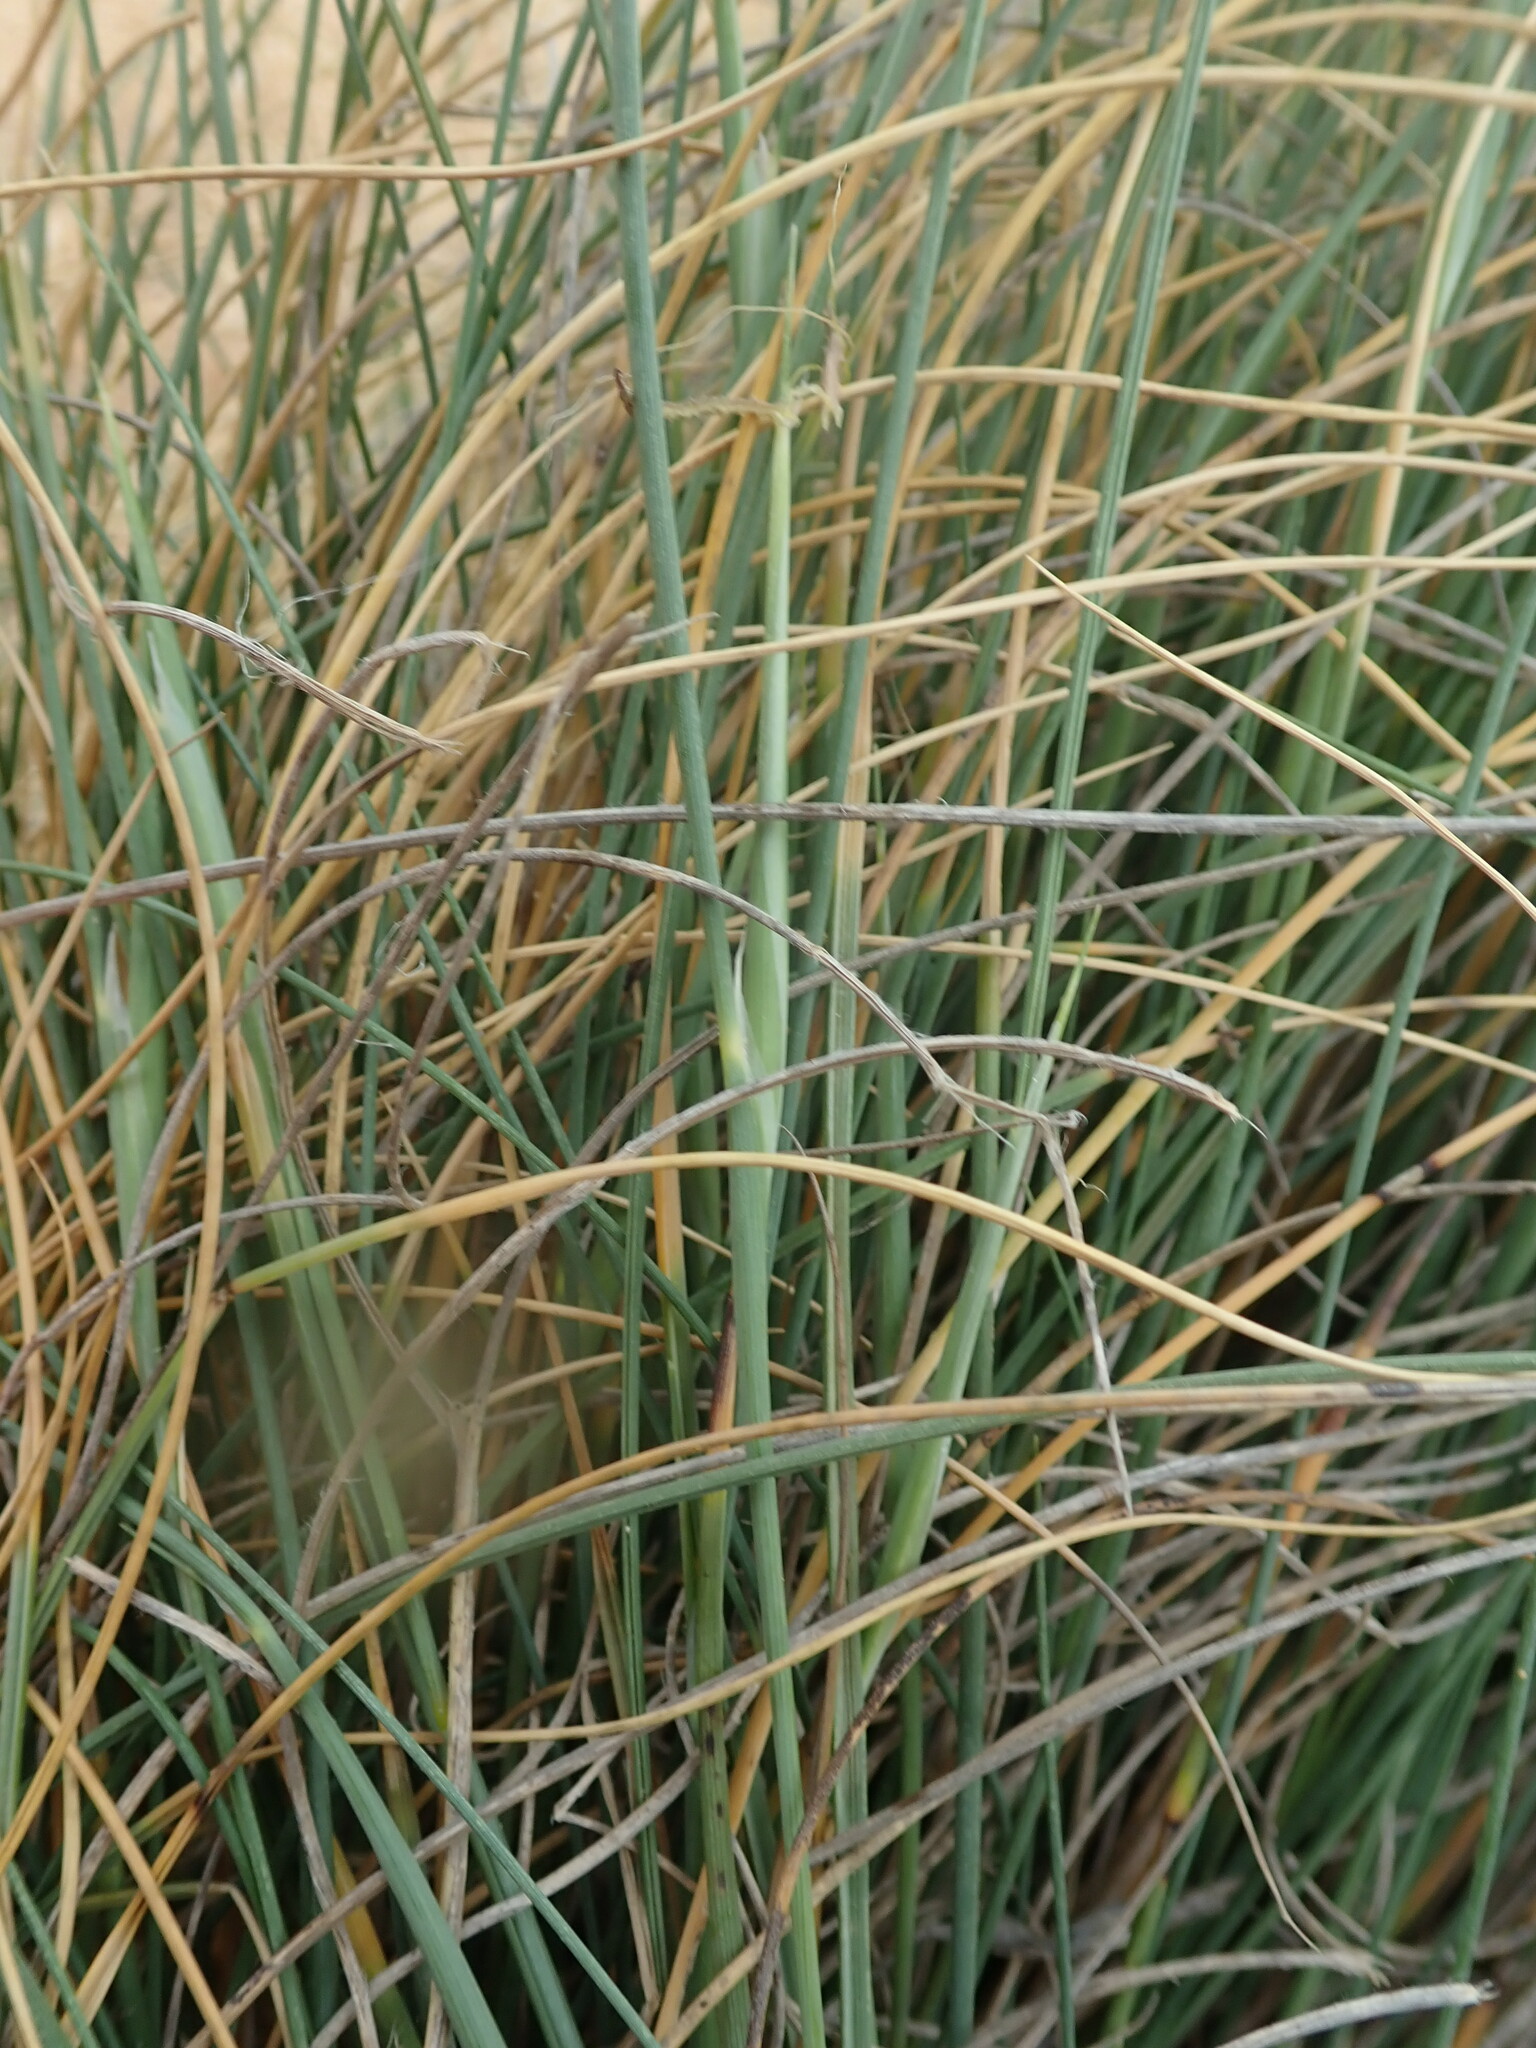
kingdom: Plantae
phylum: Tracheophyta
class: Liliopsida
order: Poales
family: Poaceae
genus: Lygeum
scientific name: Lygeum spartum
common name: Albardine
